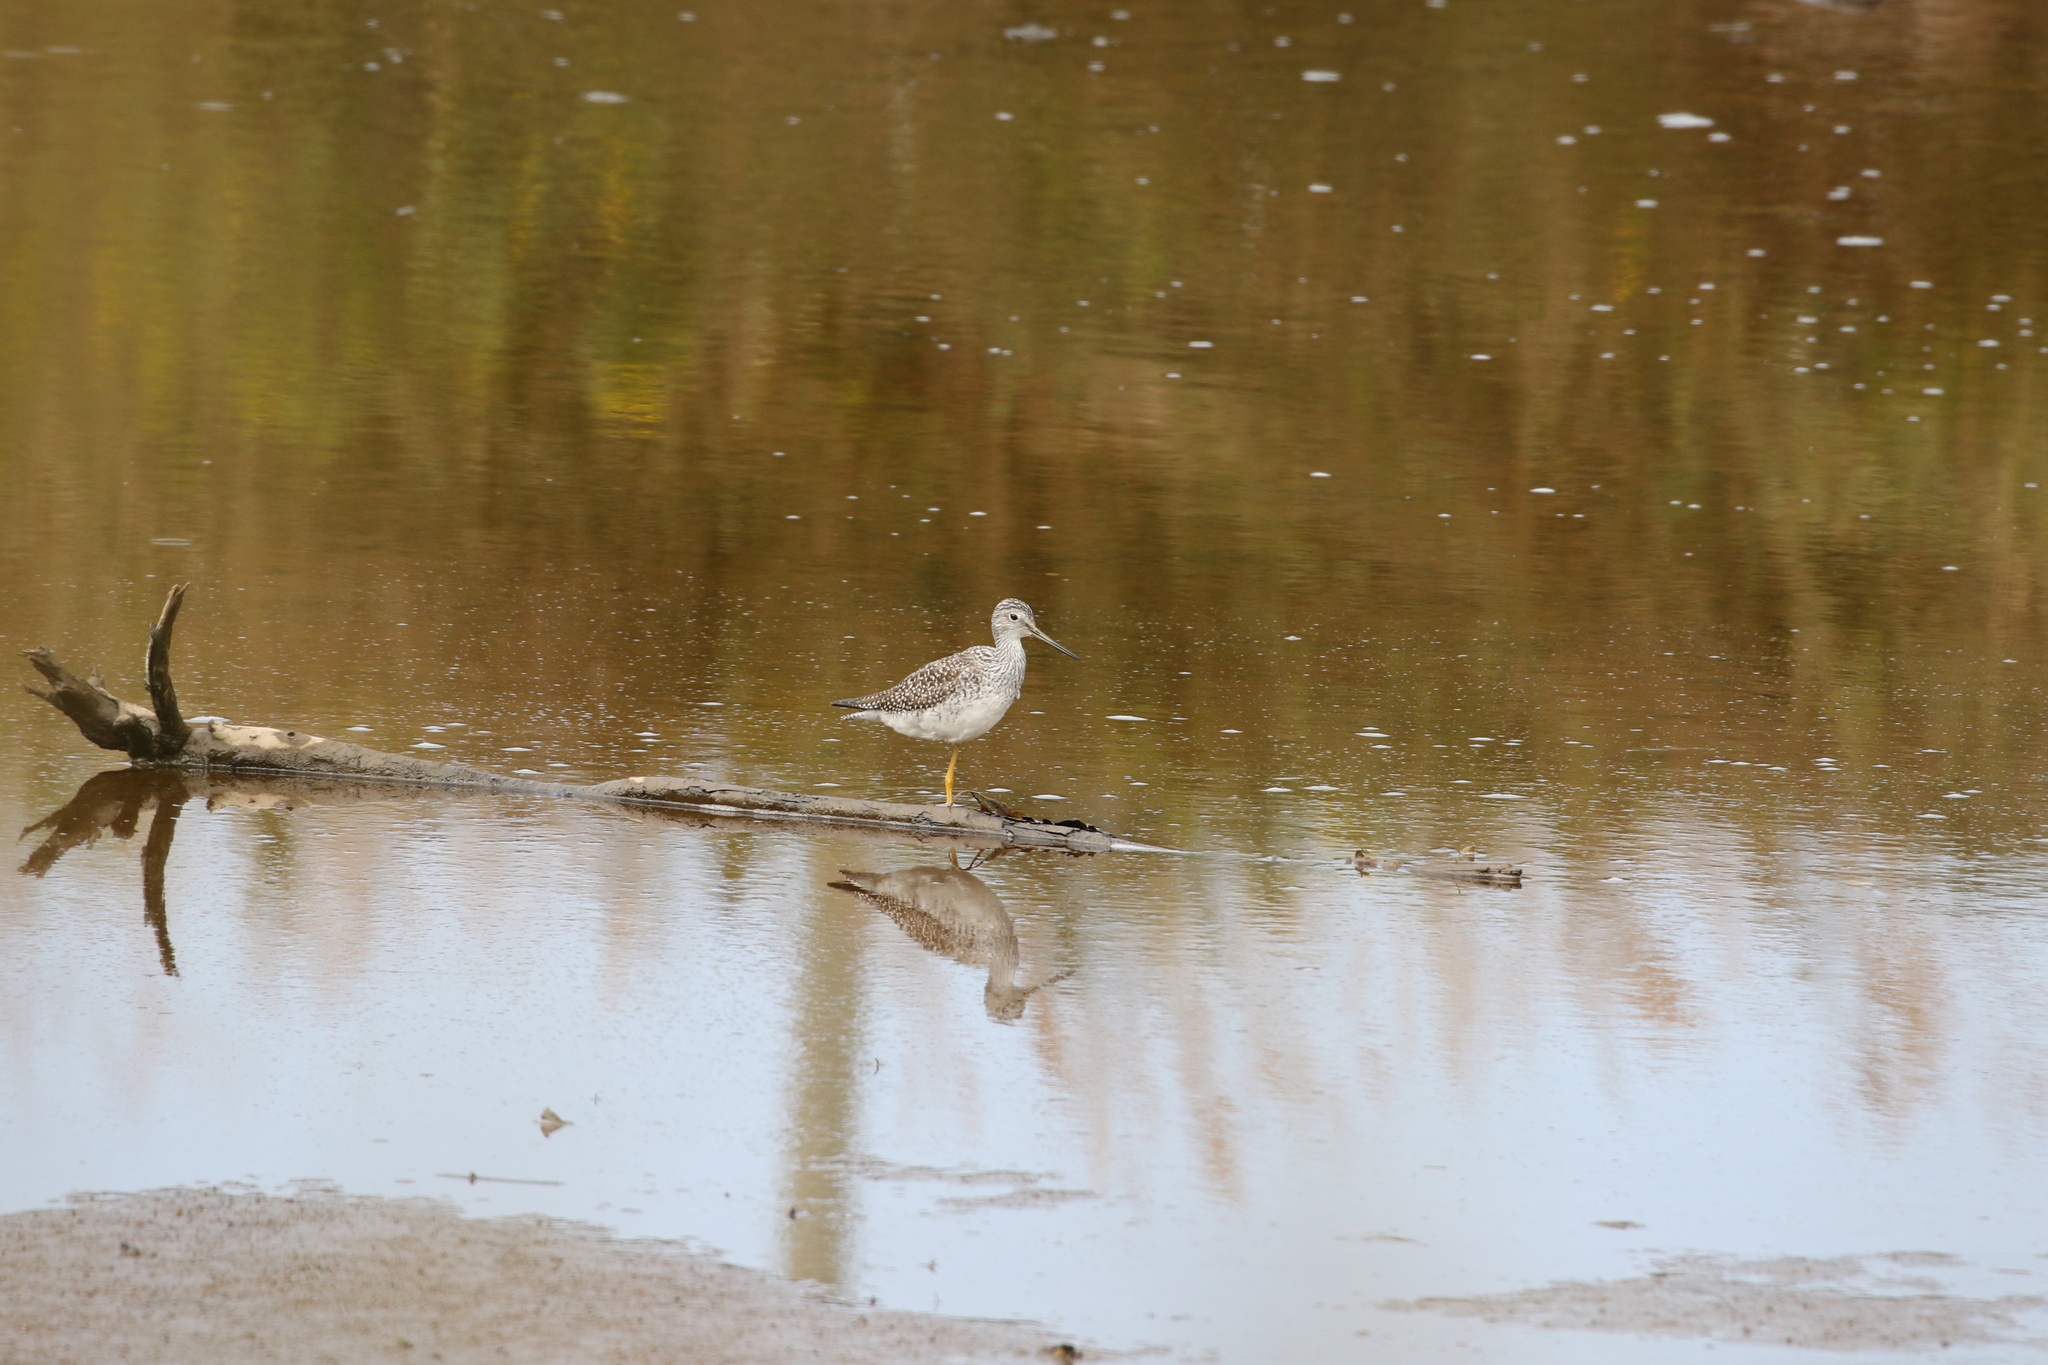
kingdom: Animalia
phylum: Chordata
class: Aves
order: Charadriiformes
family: Scolopacidae
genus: Tringa
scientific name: Tringa melanoleuca
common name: Greater yellowlegs
